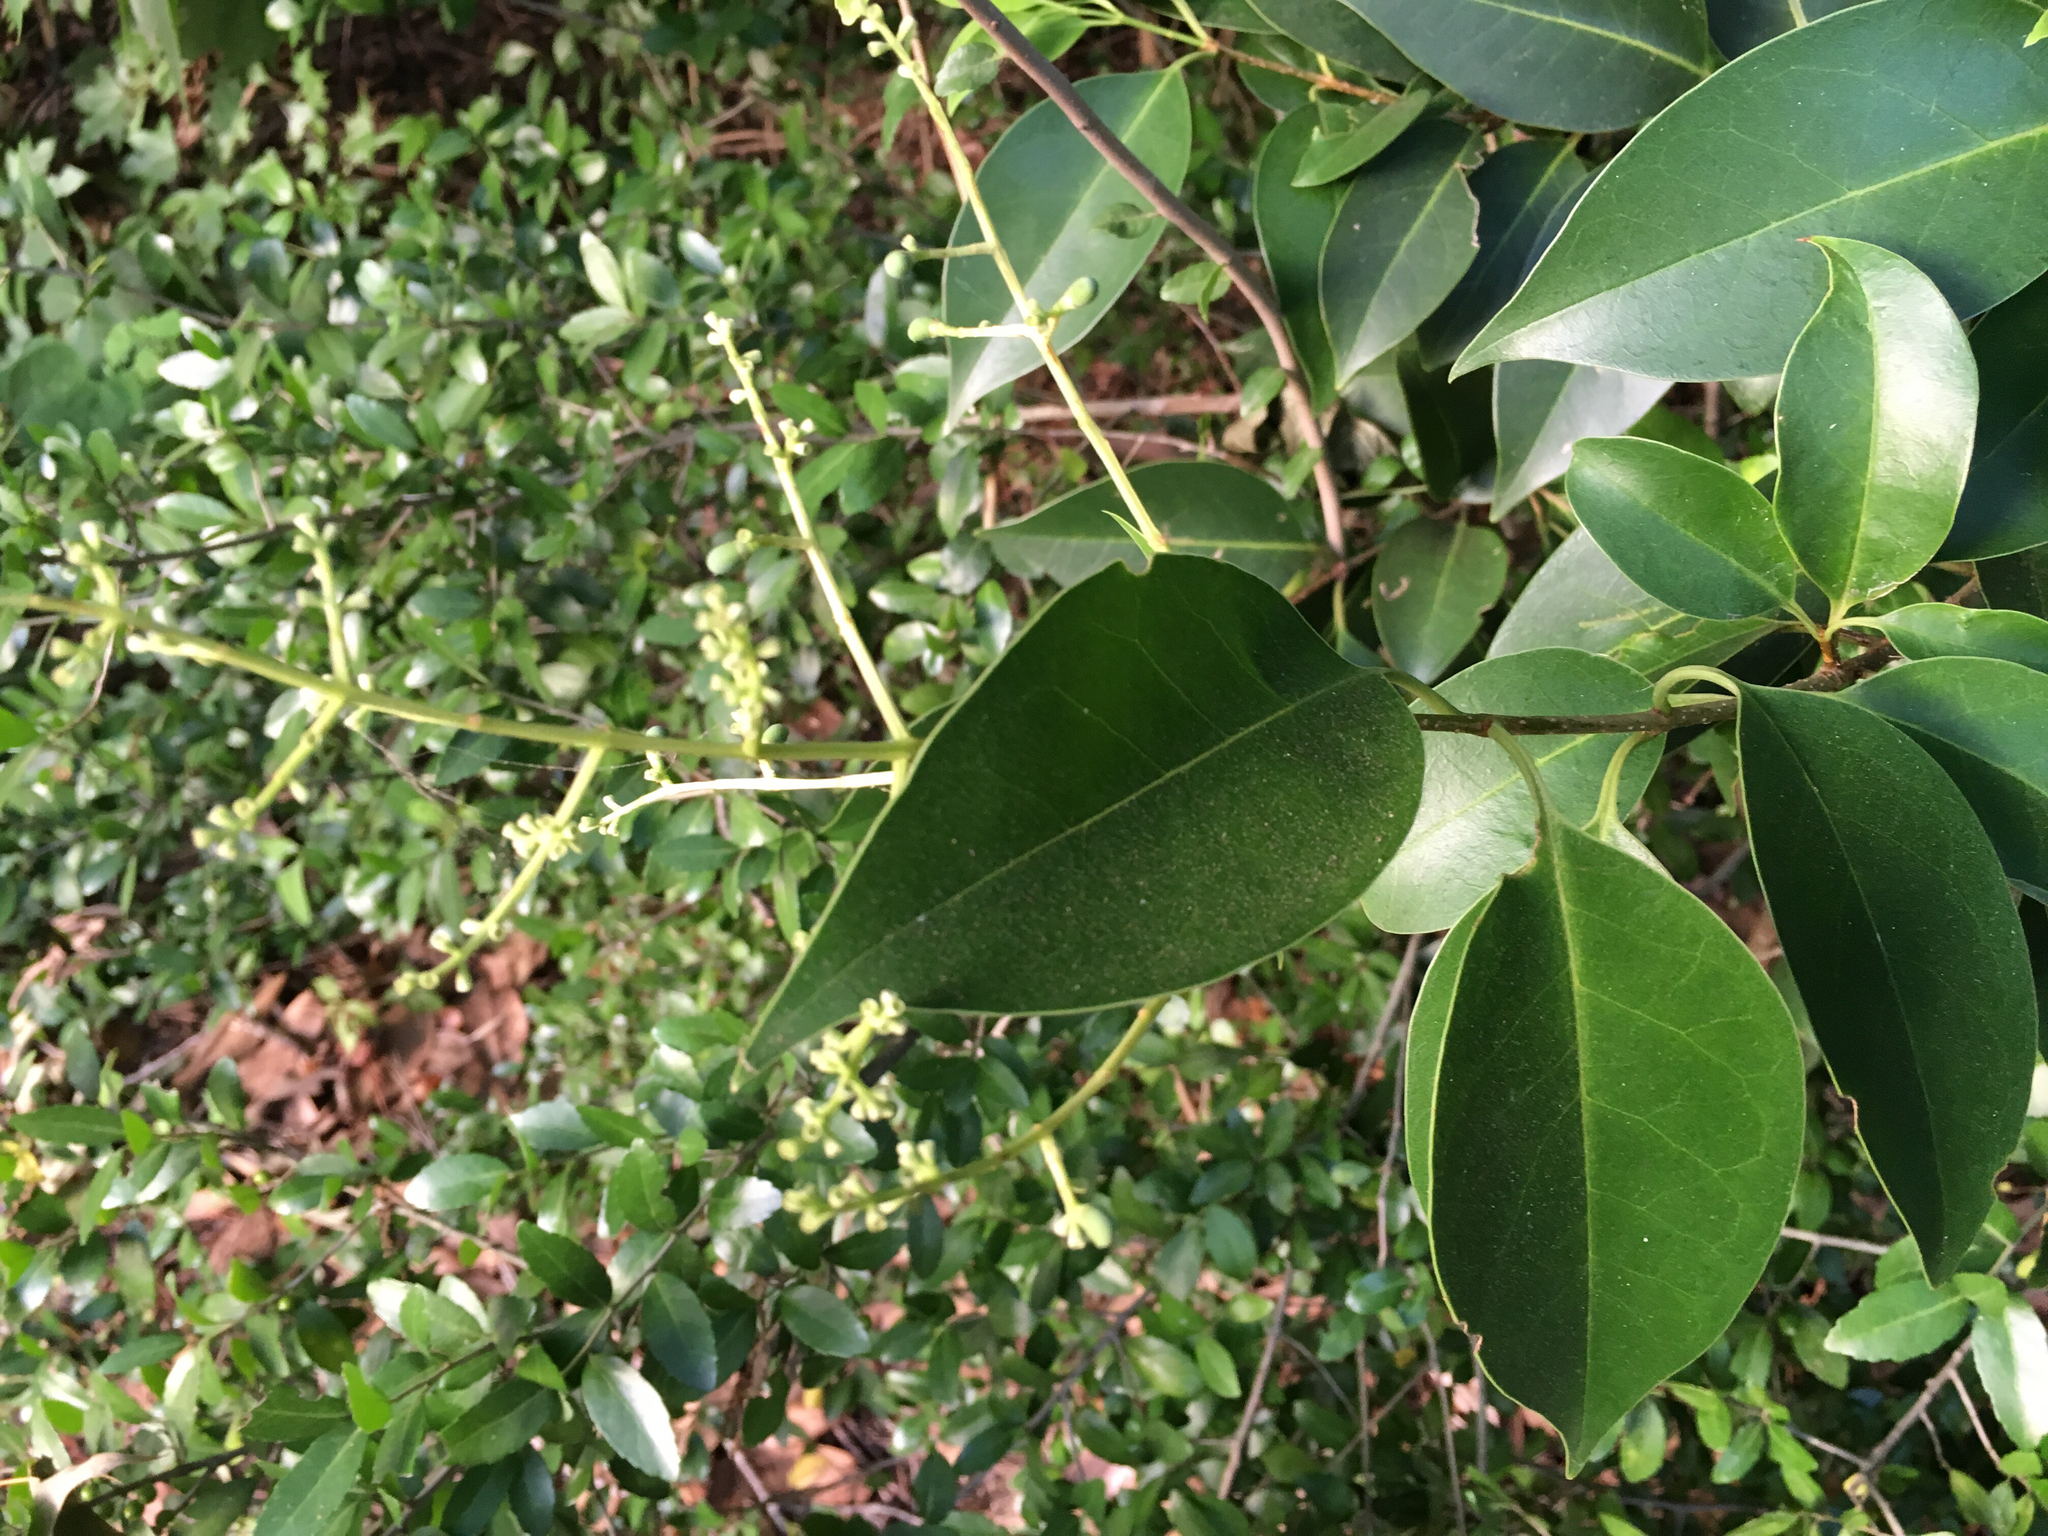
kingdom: Plantae
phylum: Tracheophyta
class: Magnoliopsida
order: Lamiales
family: Oleaceae
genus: Ligustrum
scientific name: Ligustrum lucidum
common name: Glossy privet
